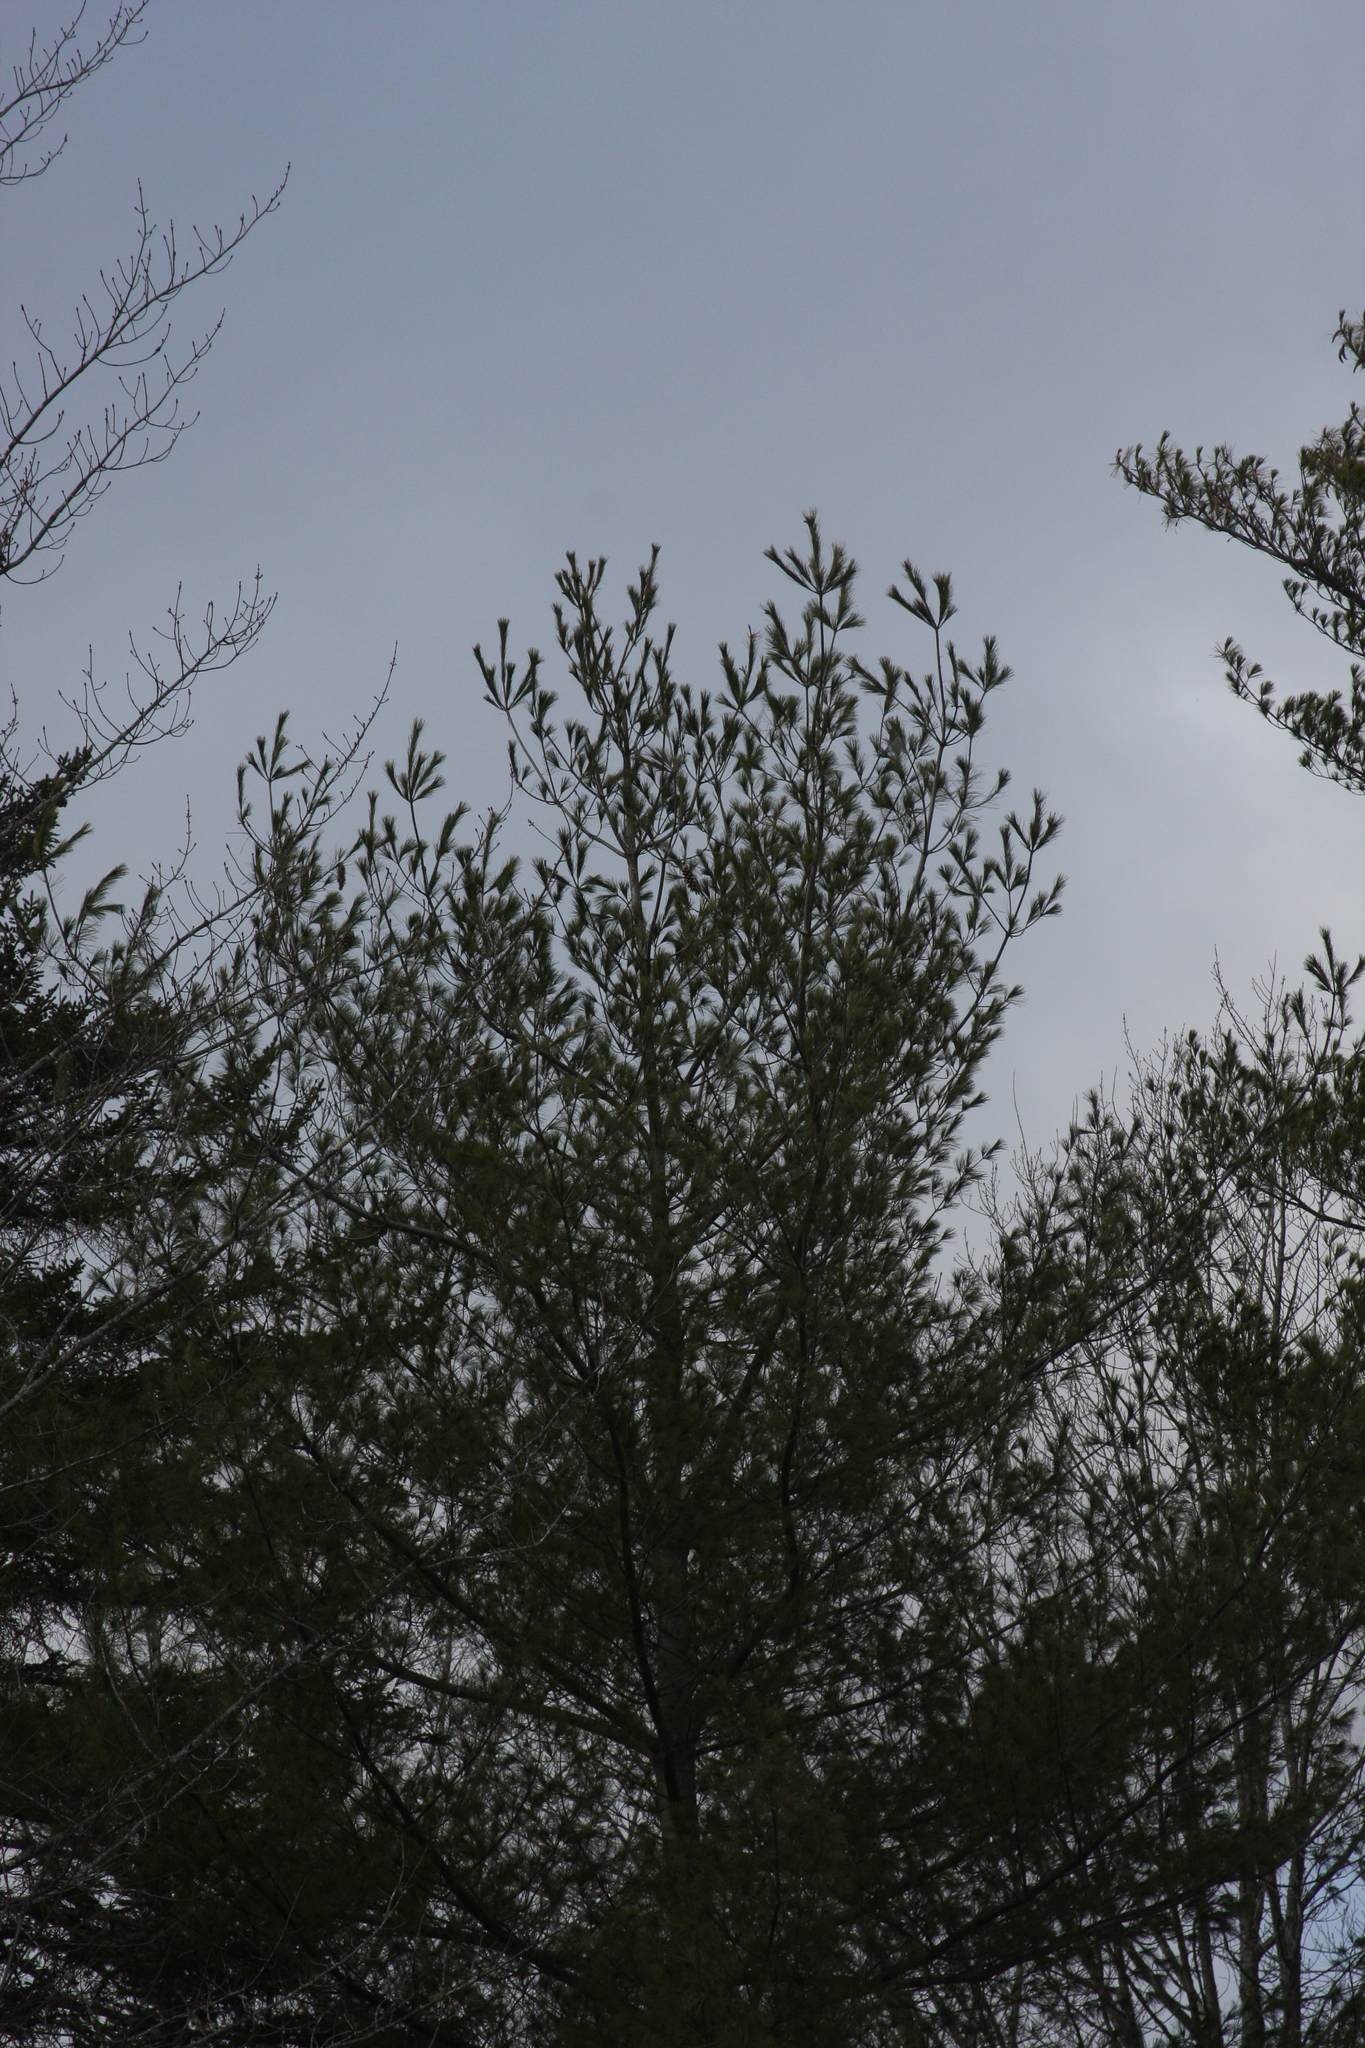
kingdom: Plantae
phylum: Tracheophyta
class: Pinopsida
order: Pinales
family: Pinaceae
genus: Pinus
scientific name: Pinus strobus
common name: Weymouth pine
